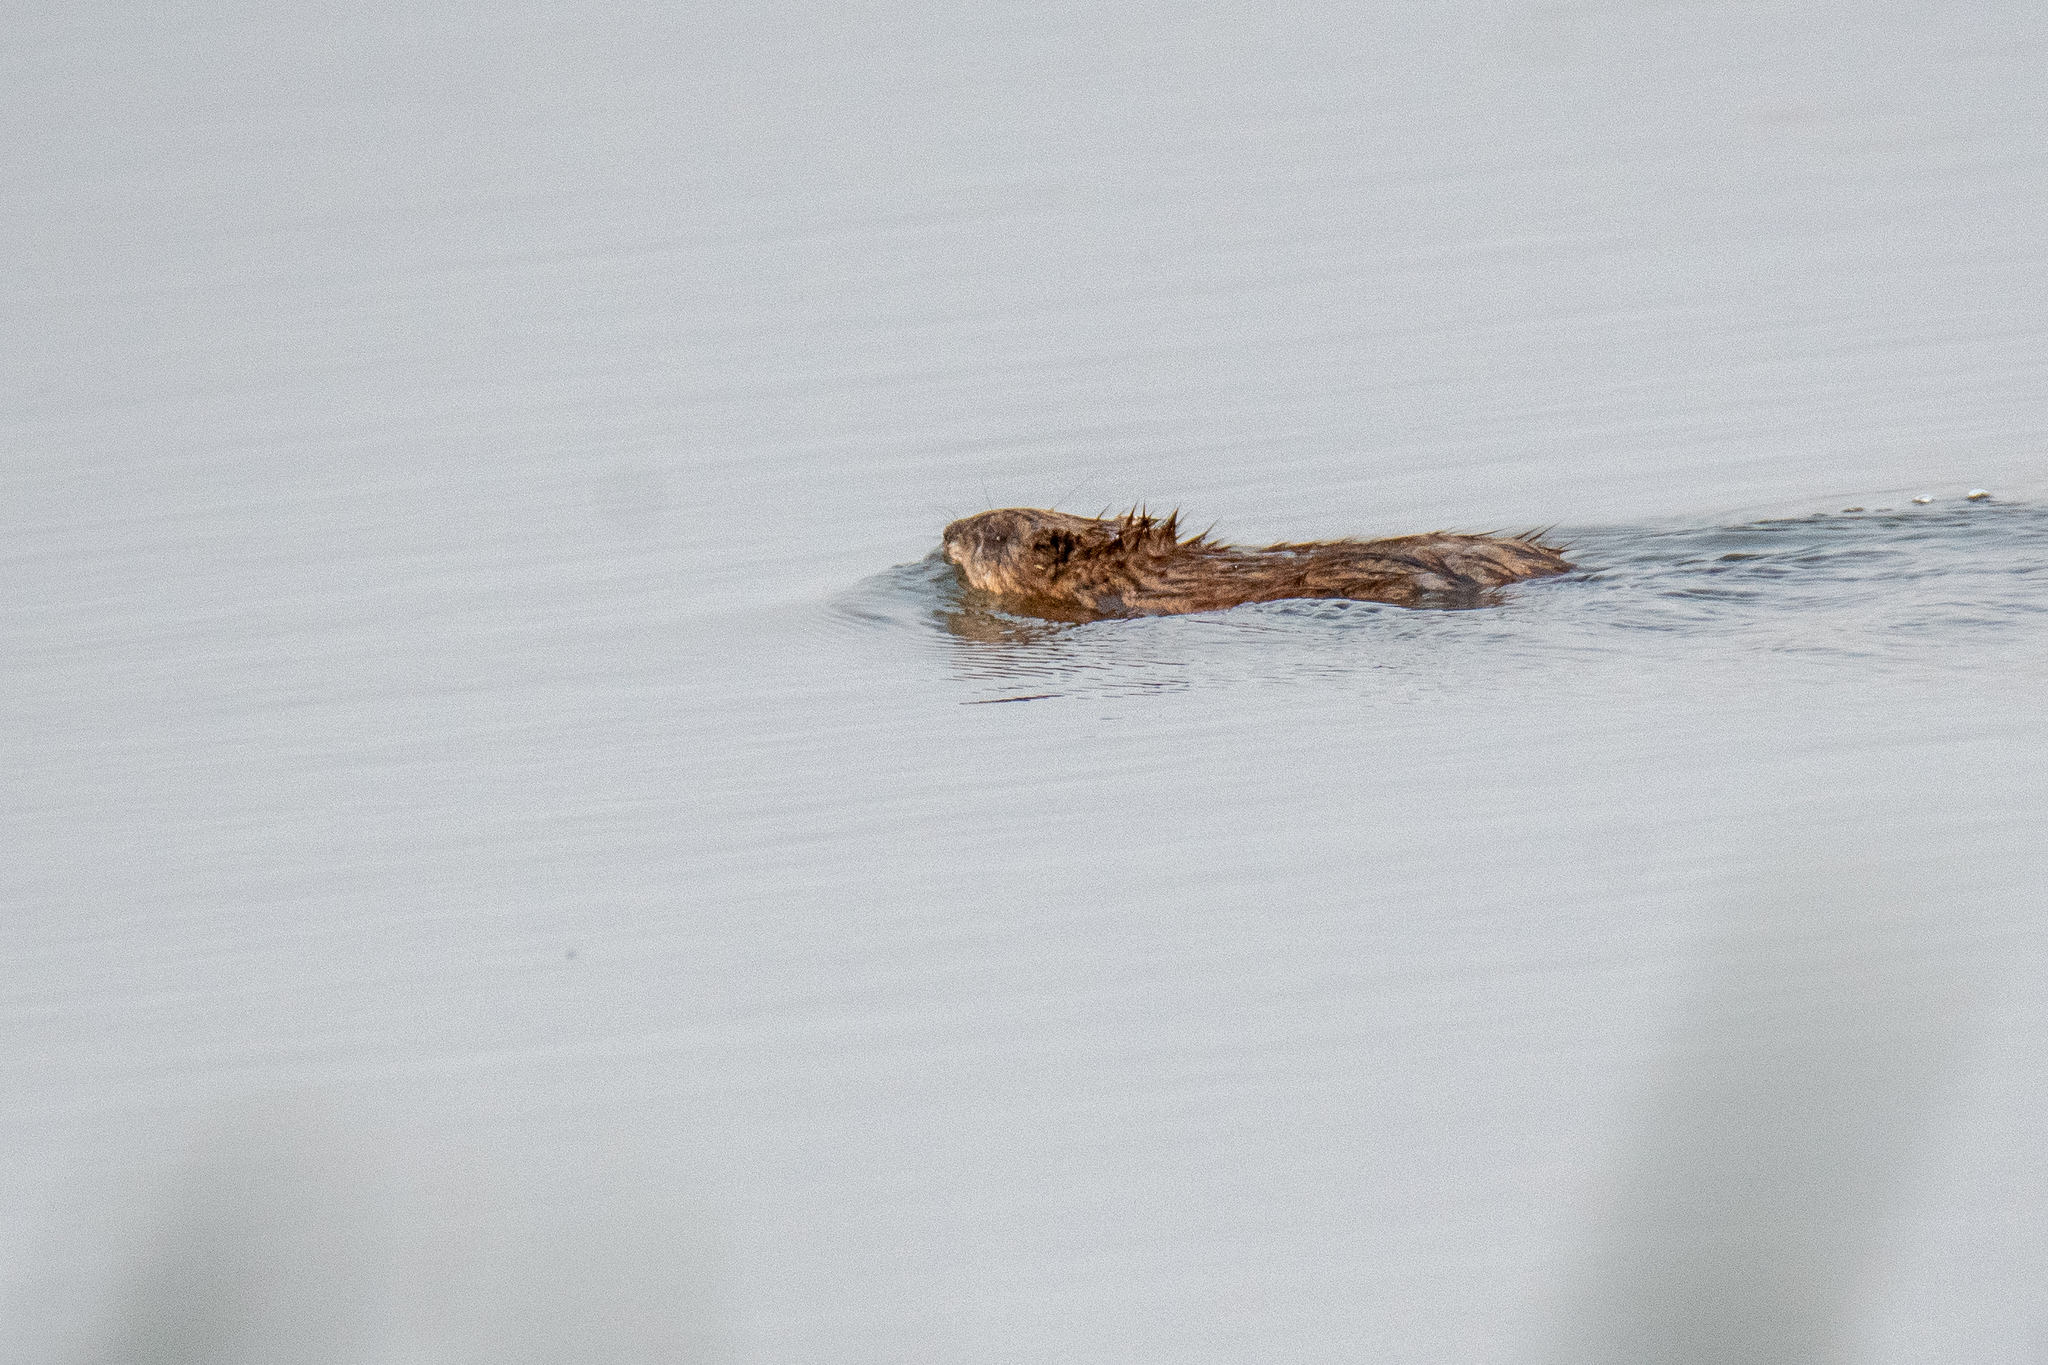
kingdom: Animalia
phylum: Chordata
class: Mammalia
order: Rodentia
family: Cricetidae
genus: Ondatra
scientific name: Ondatra zibethicus
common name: Muskrat
